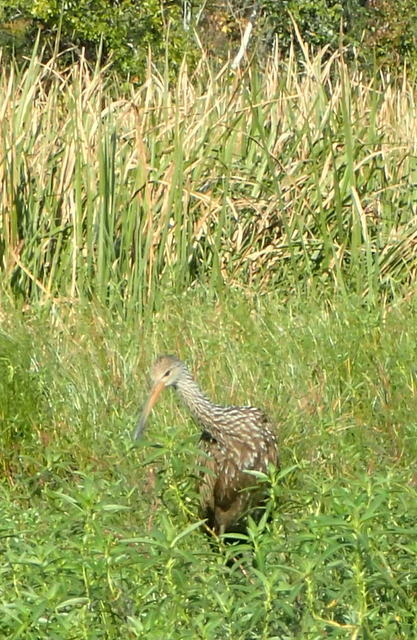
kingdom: Animalia
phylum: Chordata
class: Aves
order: Gruiformes
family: Aramidae
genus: Aramus
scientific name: Aramus guarauna
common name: Limpkin
